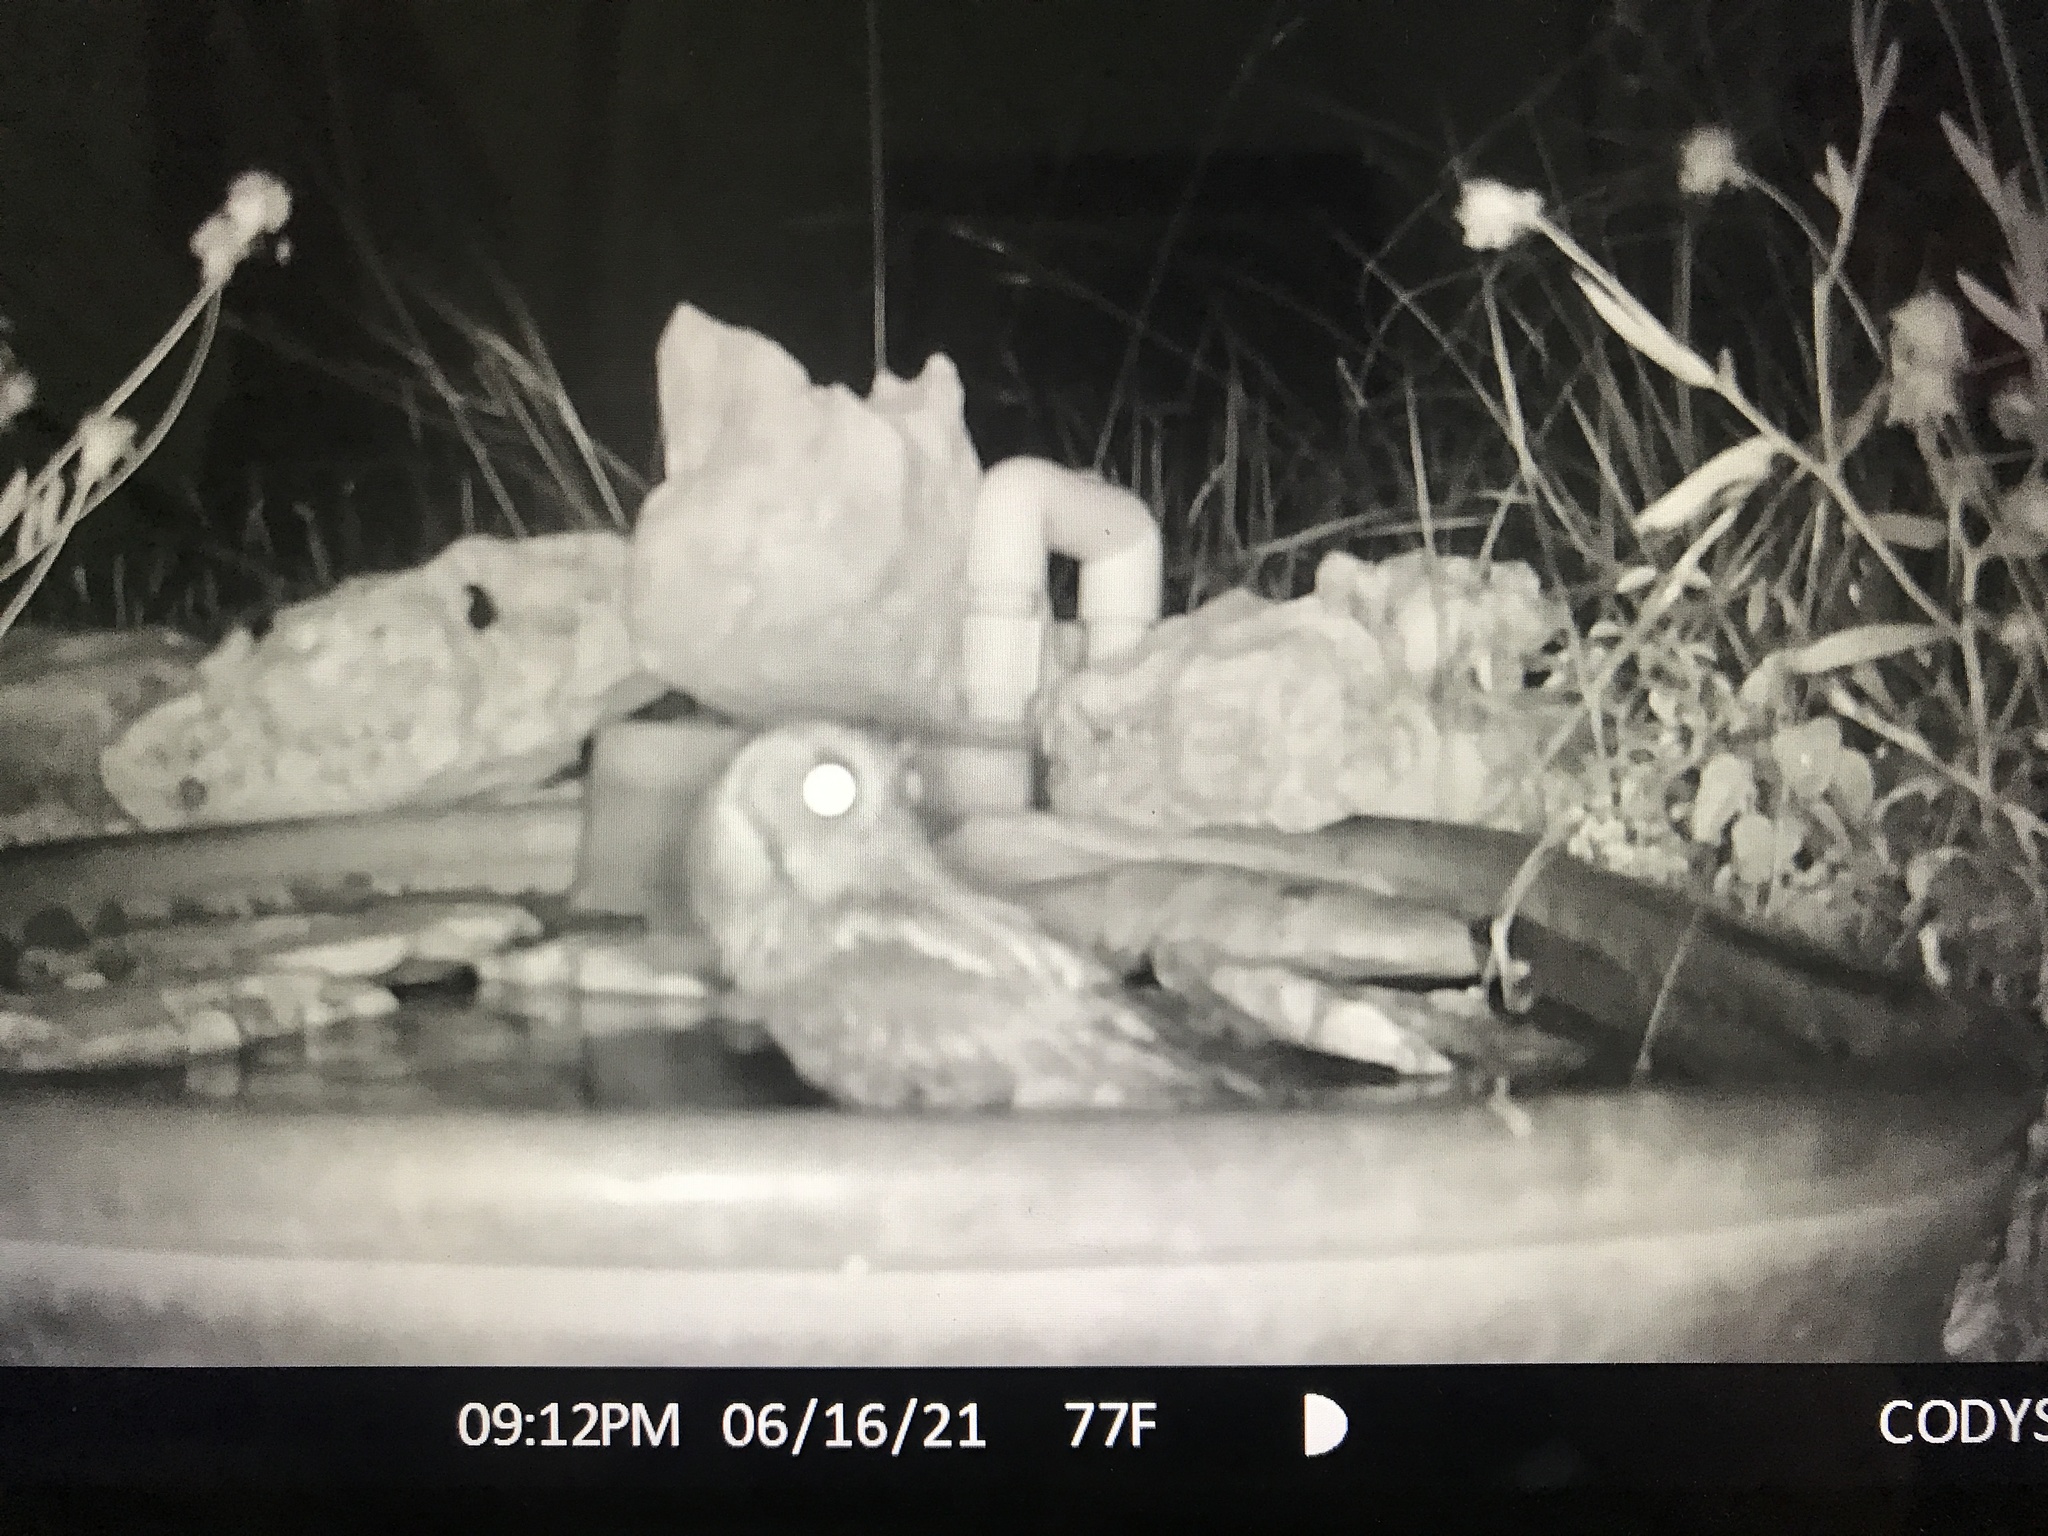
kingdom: Animalia
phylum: Chordata
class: Aves
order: Strigiformes
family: Strigidae
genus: Megascops
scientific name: Megascops asio
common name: Eastern screech-owl
